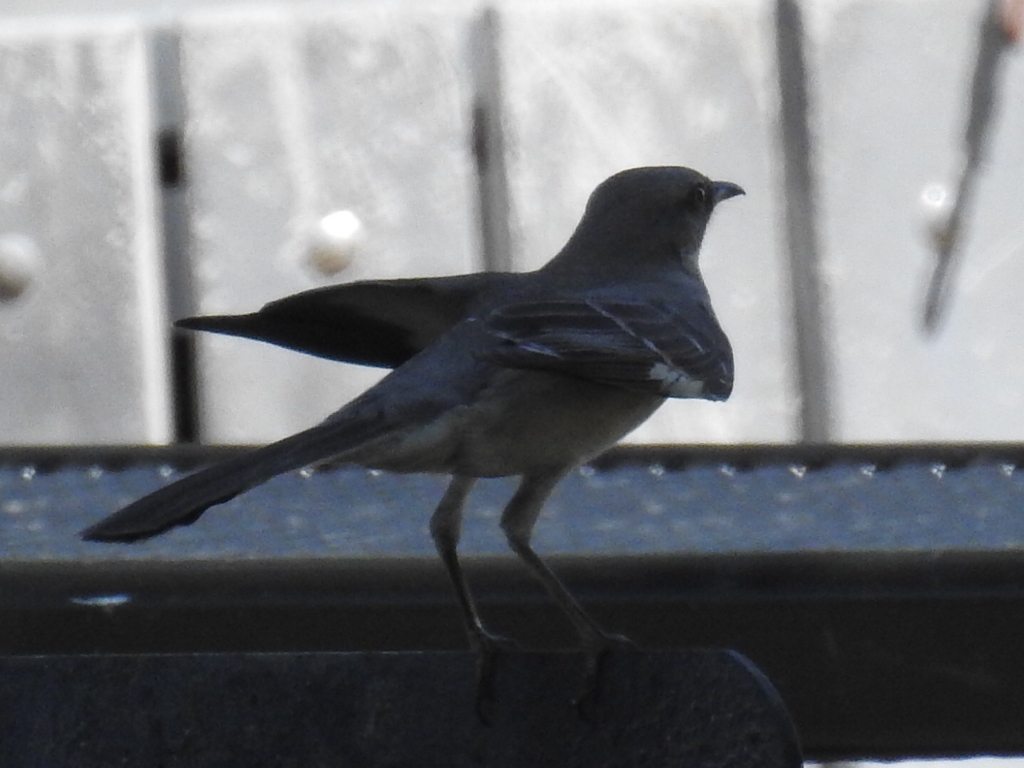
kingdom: Animalia
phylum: Chordata
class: Aves
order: Passeriformes
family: Mimidae
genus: Mimus
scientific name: Mimus polyglottos
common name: Northern mockingbird
